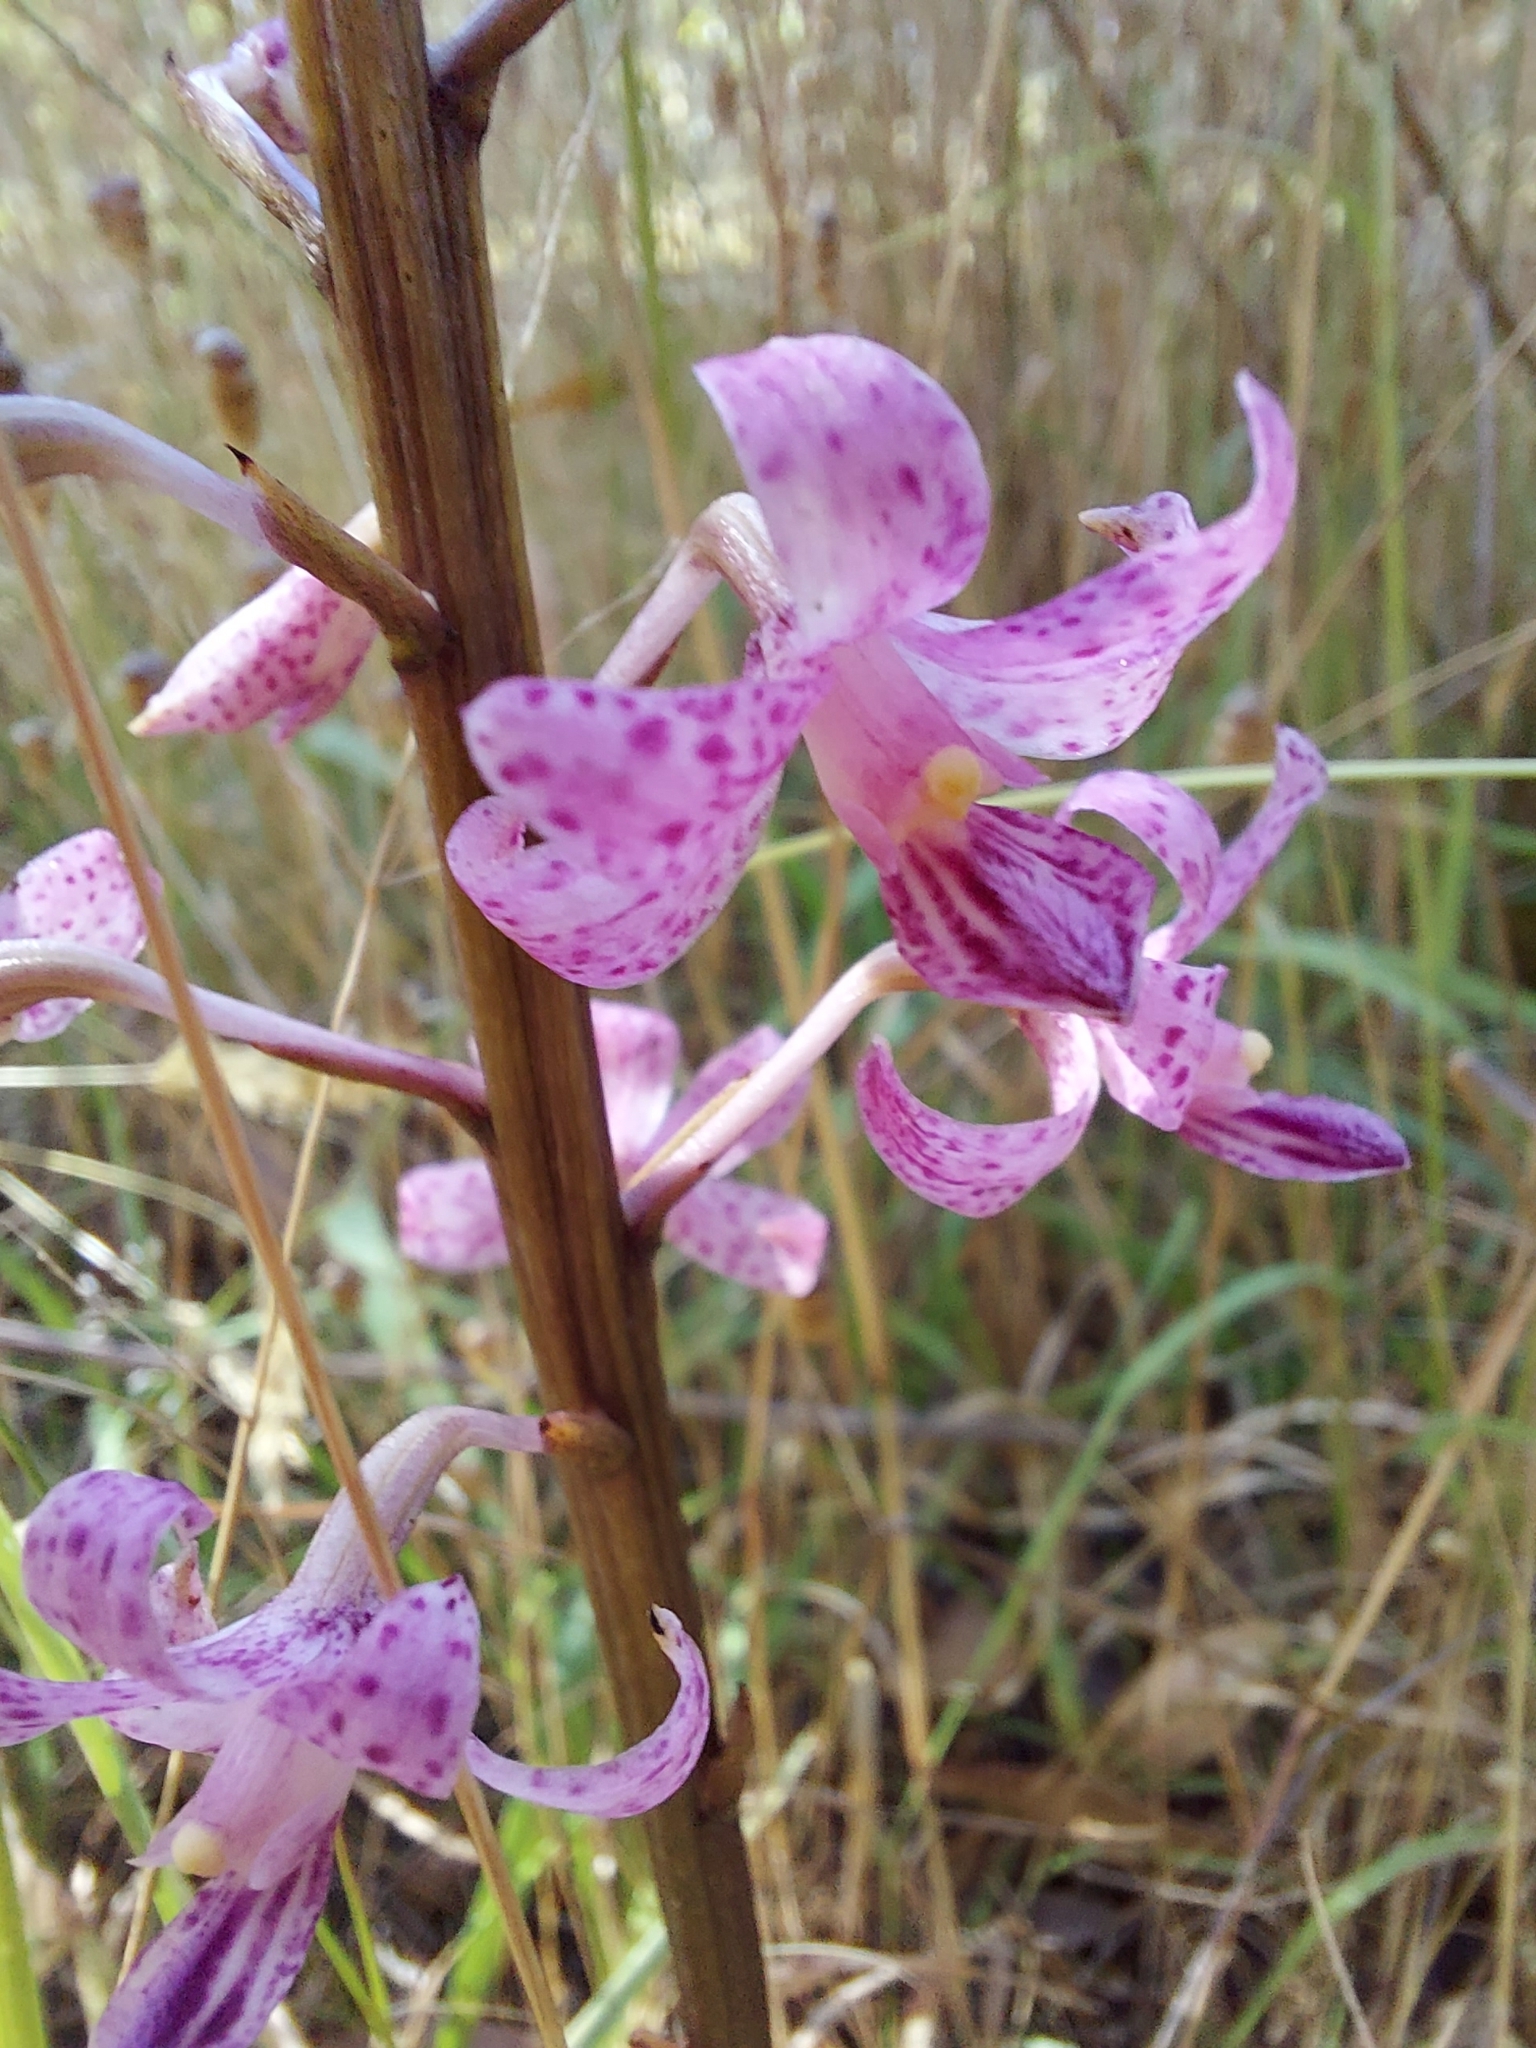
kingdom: Plantae
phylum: Tracheophyta
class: Liliopsida
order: Asparagales
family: Orchidaceae
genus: Dipodium
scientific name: Dipodium roseum
